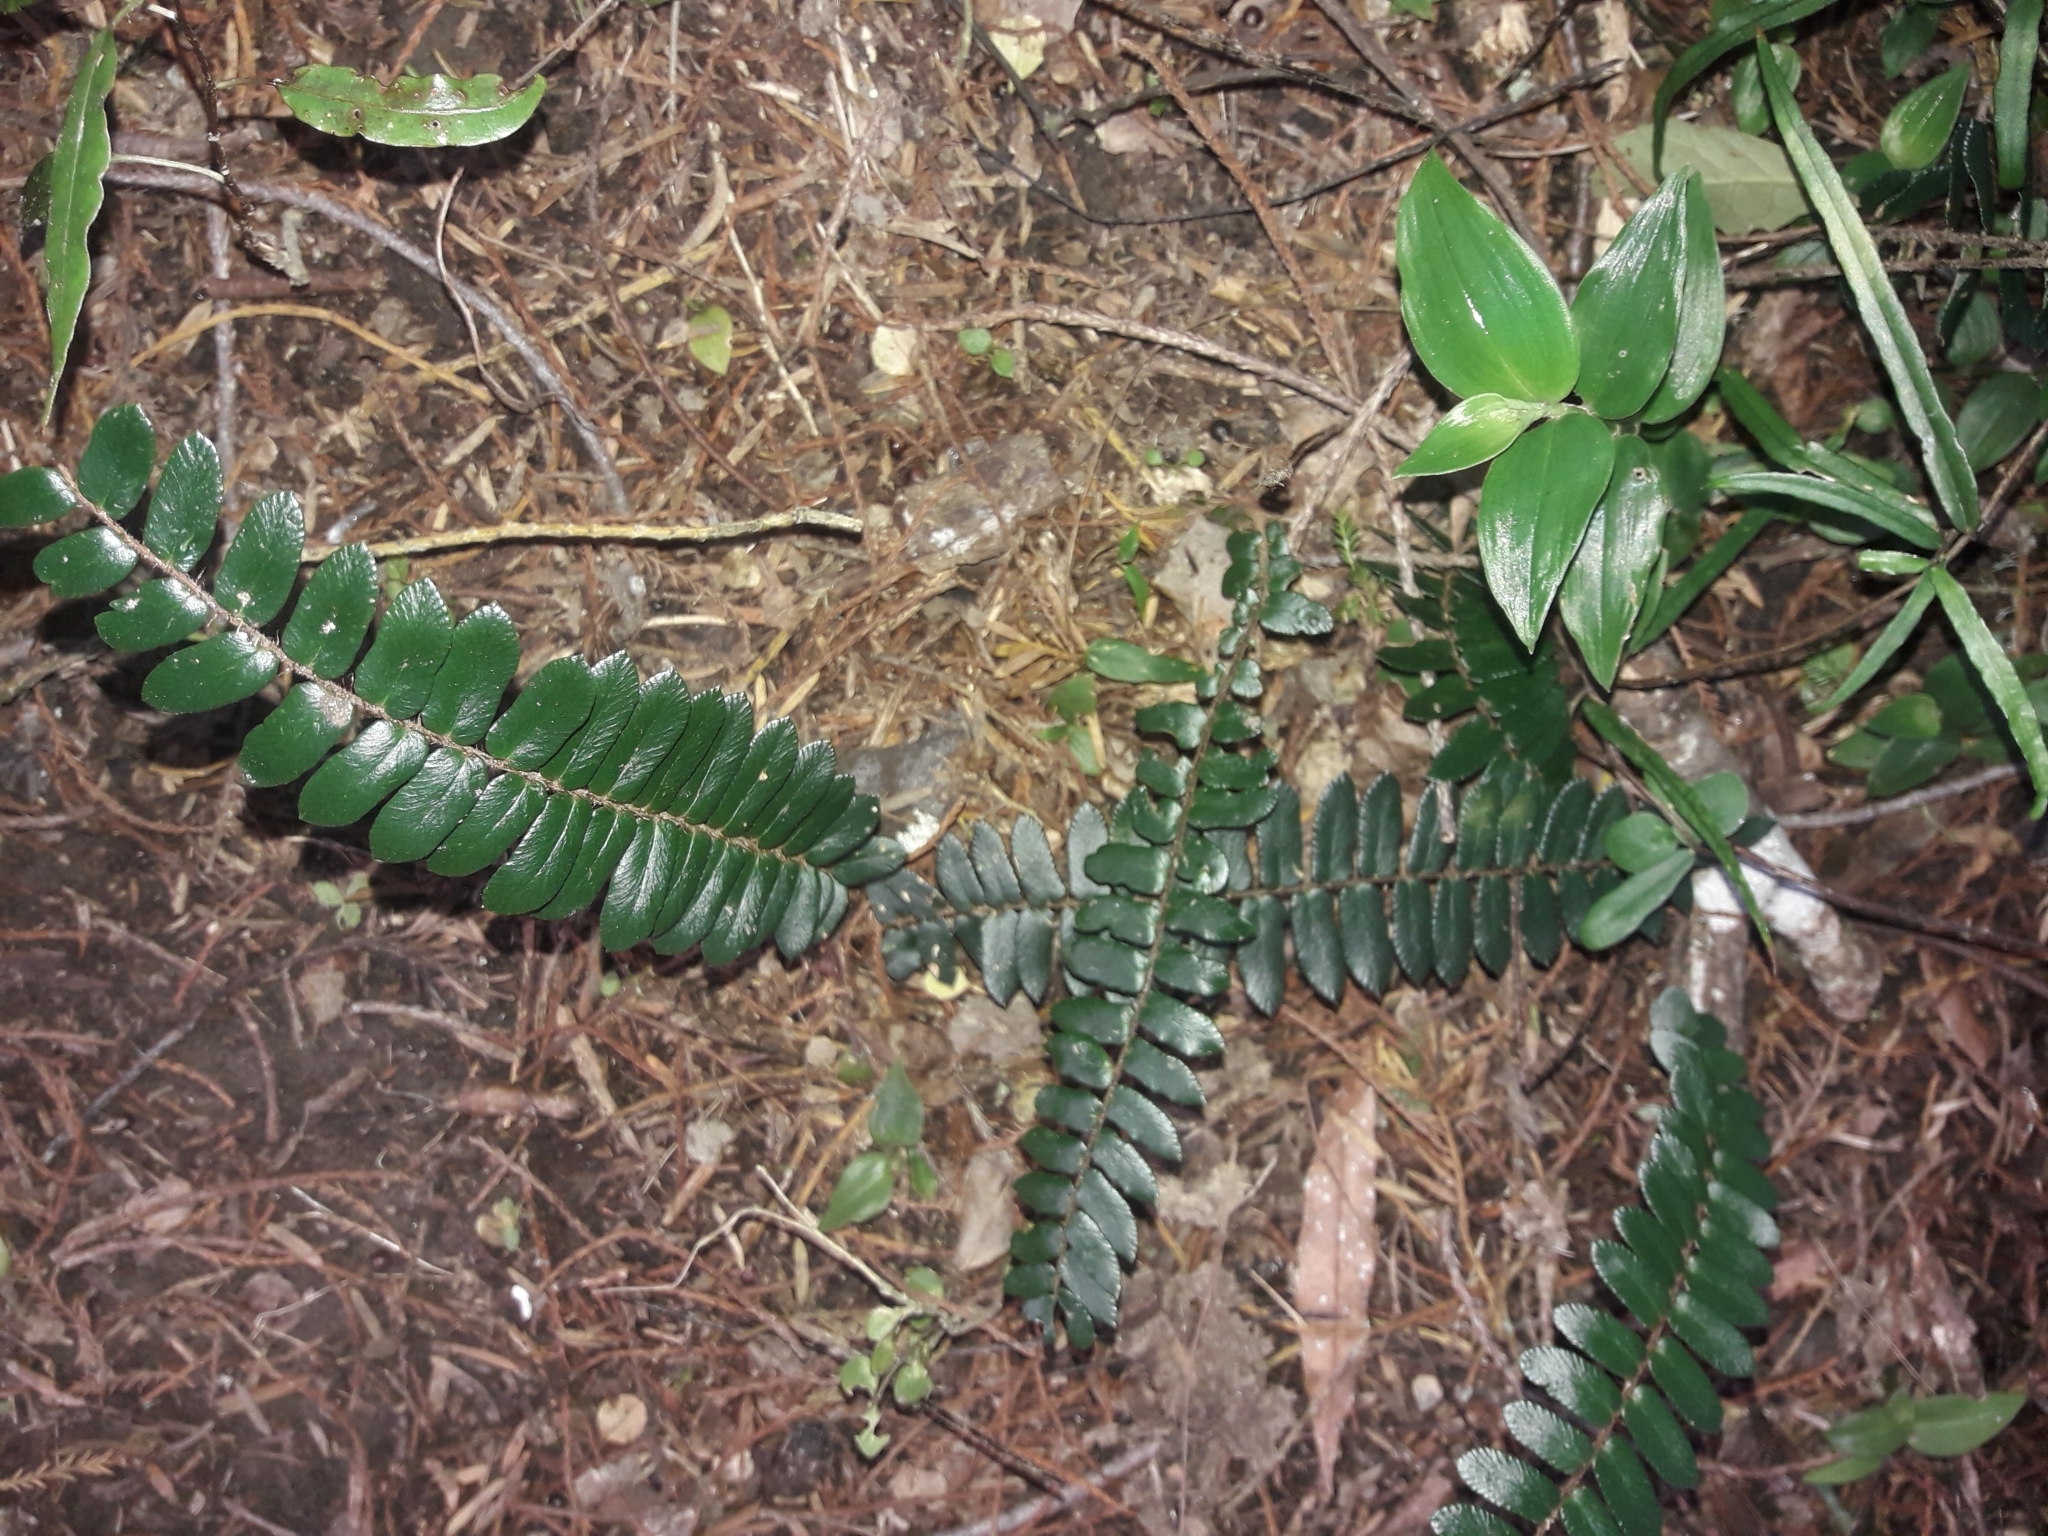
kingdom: Plantae
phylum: Tracheophyta
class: Polypodiopsida
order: Polypodiales
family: Pteridaceae
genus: Pellaea
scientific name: Pellaea rotundifolia
